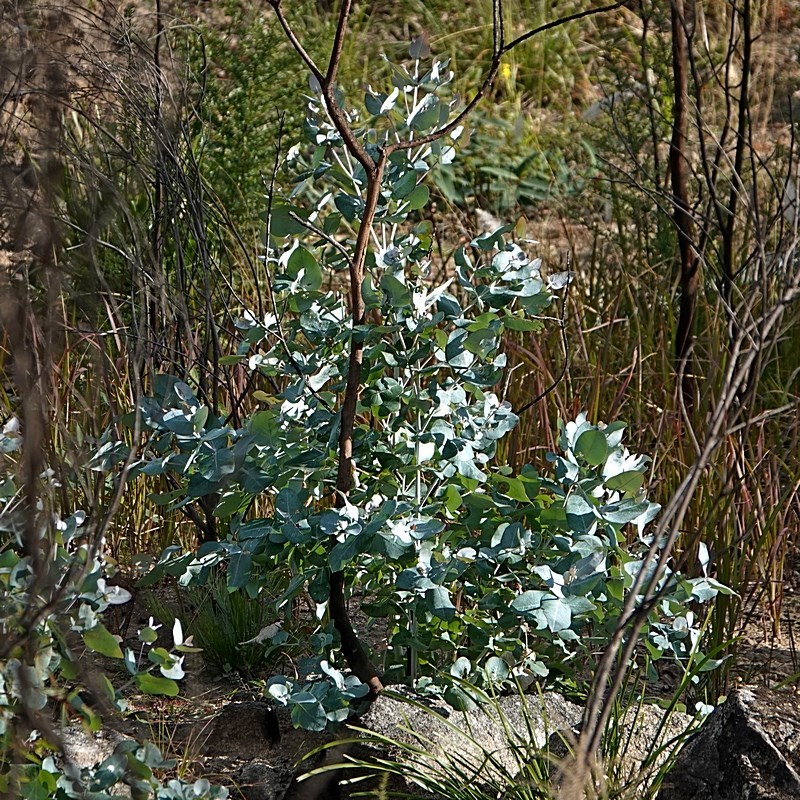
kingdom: Plantae
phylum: Tracheophyta
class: Magnoliopsida
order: Myrtales
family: Myrtaceae
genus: Eucalyptus
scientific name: Eucalyptus globulus
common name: Southern blue-gum
